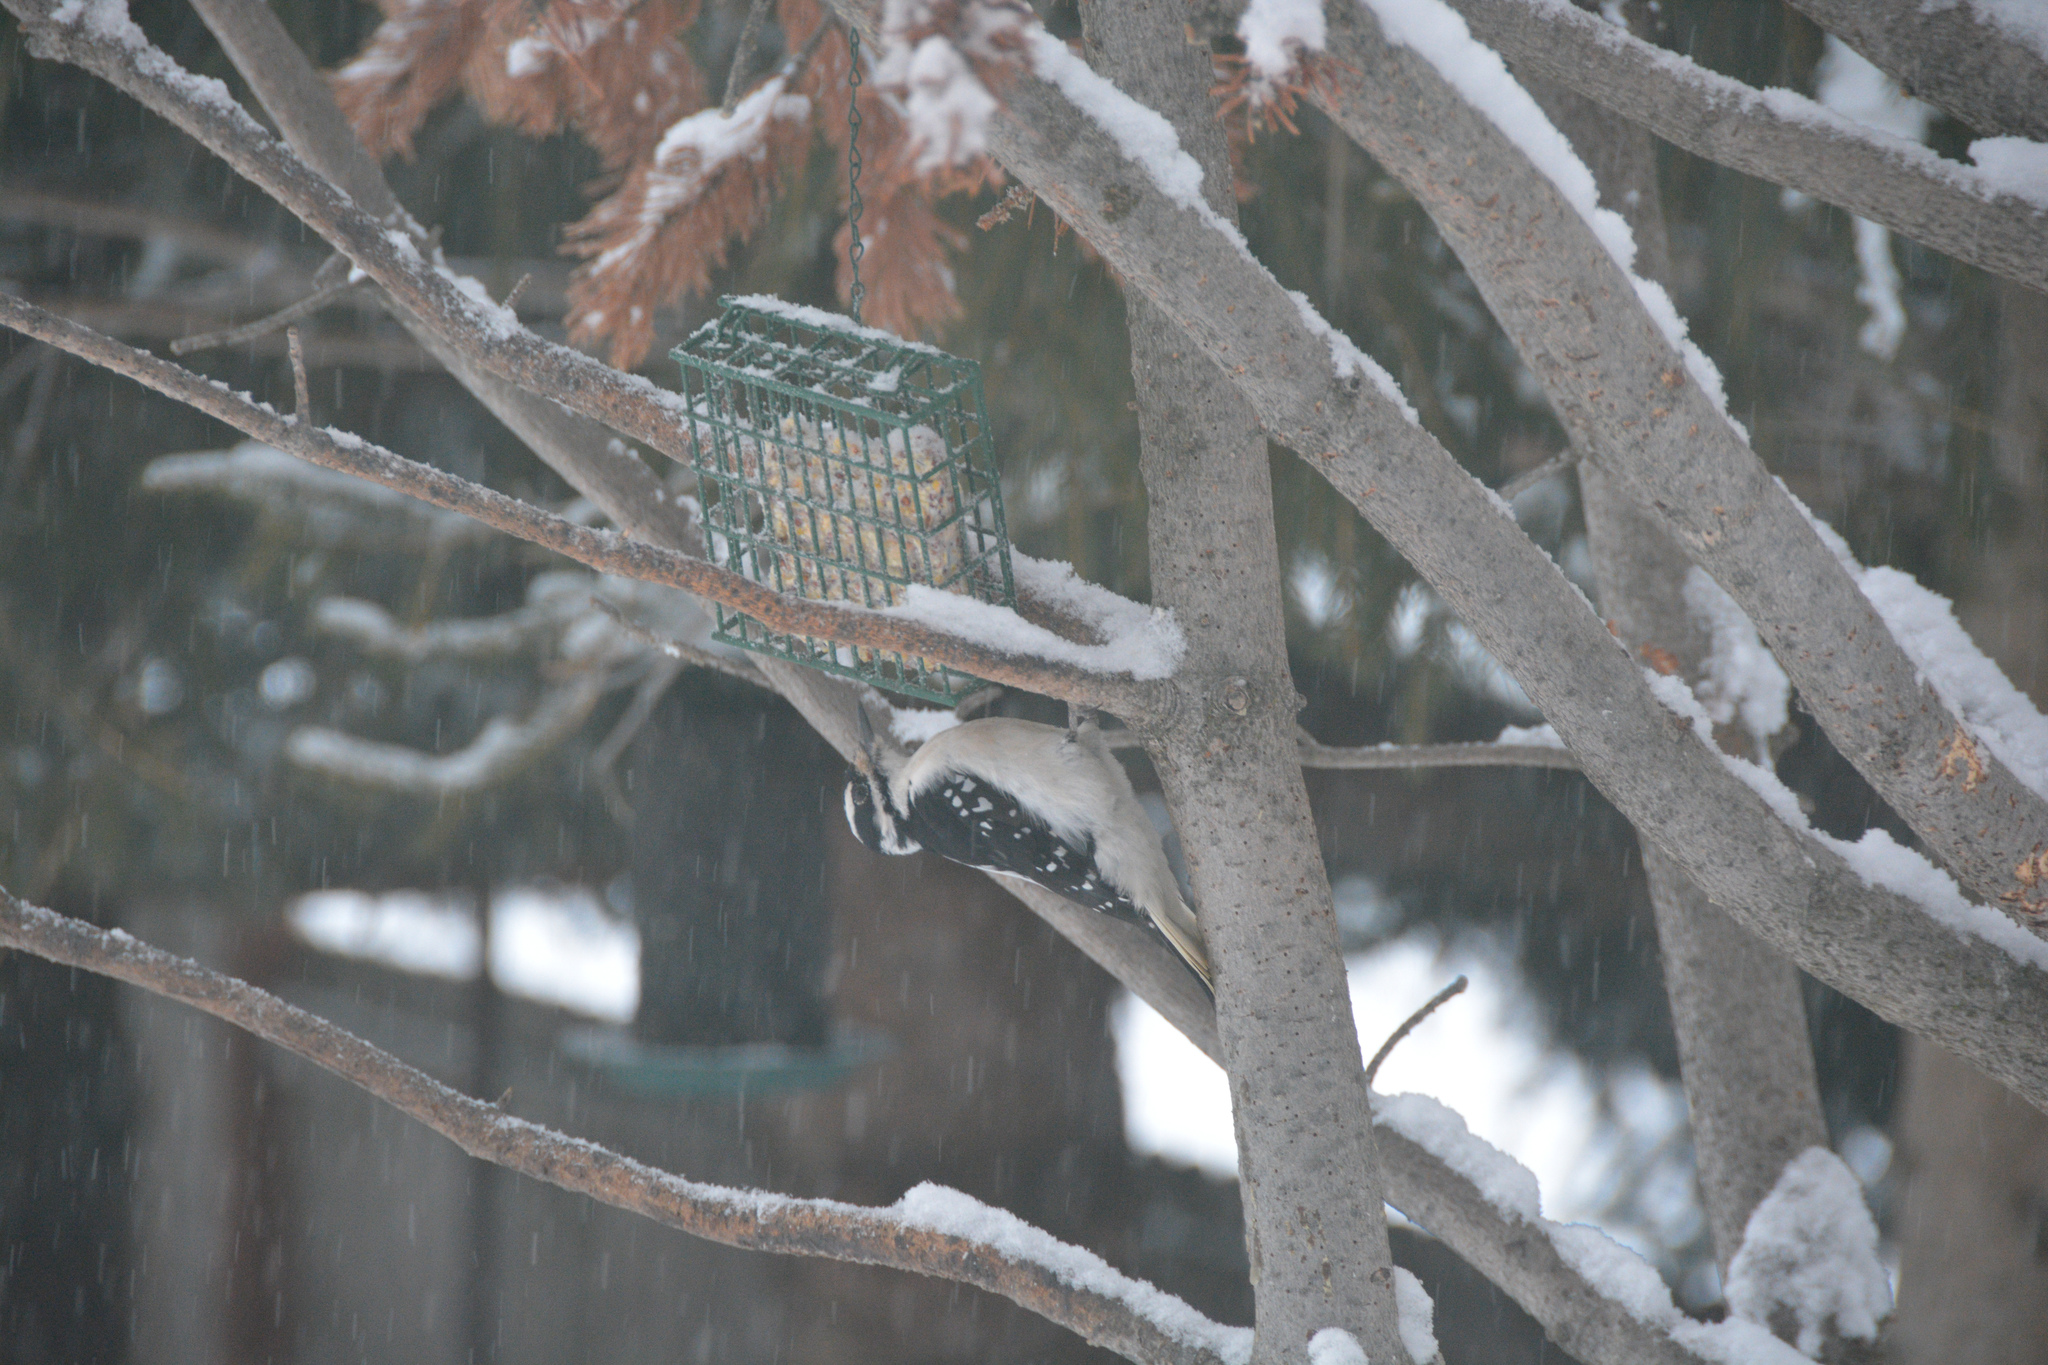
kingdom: Animalia
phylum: Chordata
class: Aves
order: Piciformes
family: Picidae
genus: Leuconotopicus
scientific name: Leuconotopicus villosus
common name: Hairy woodpecker
